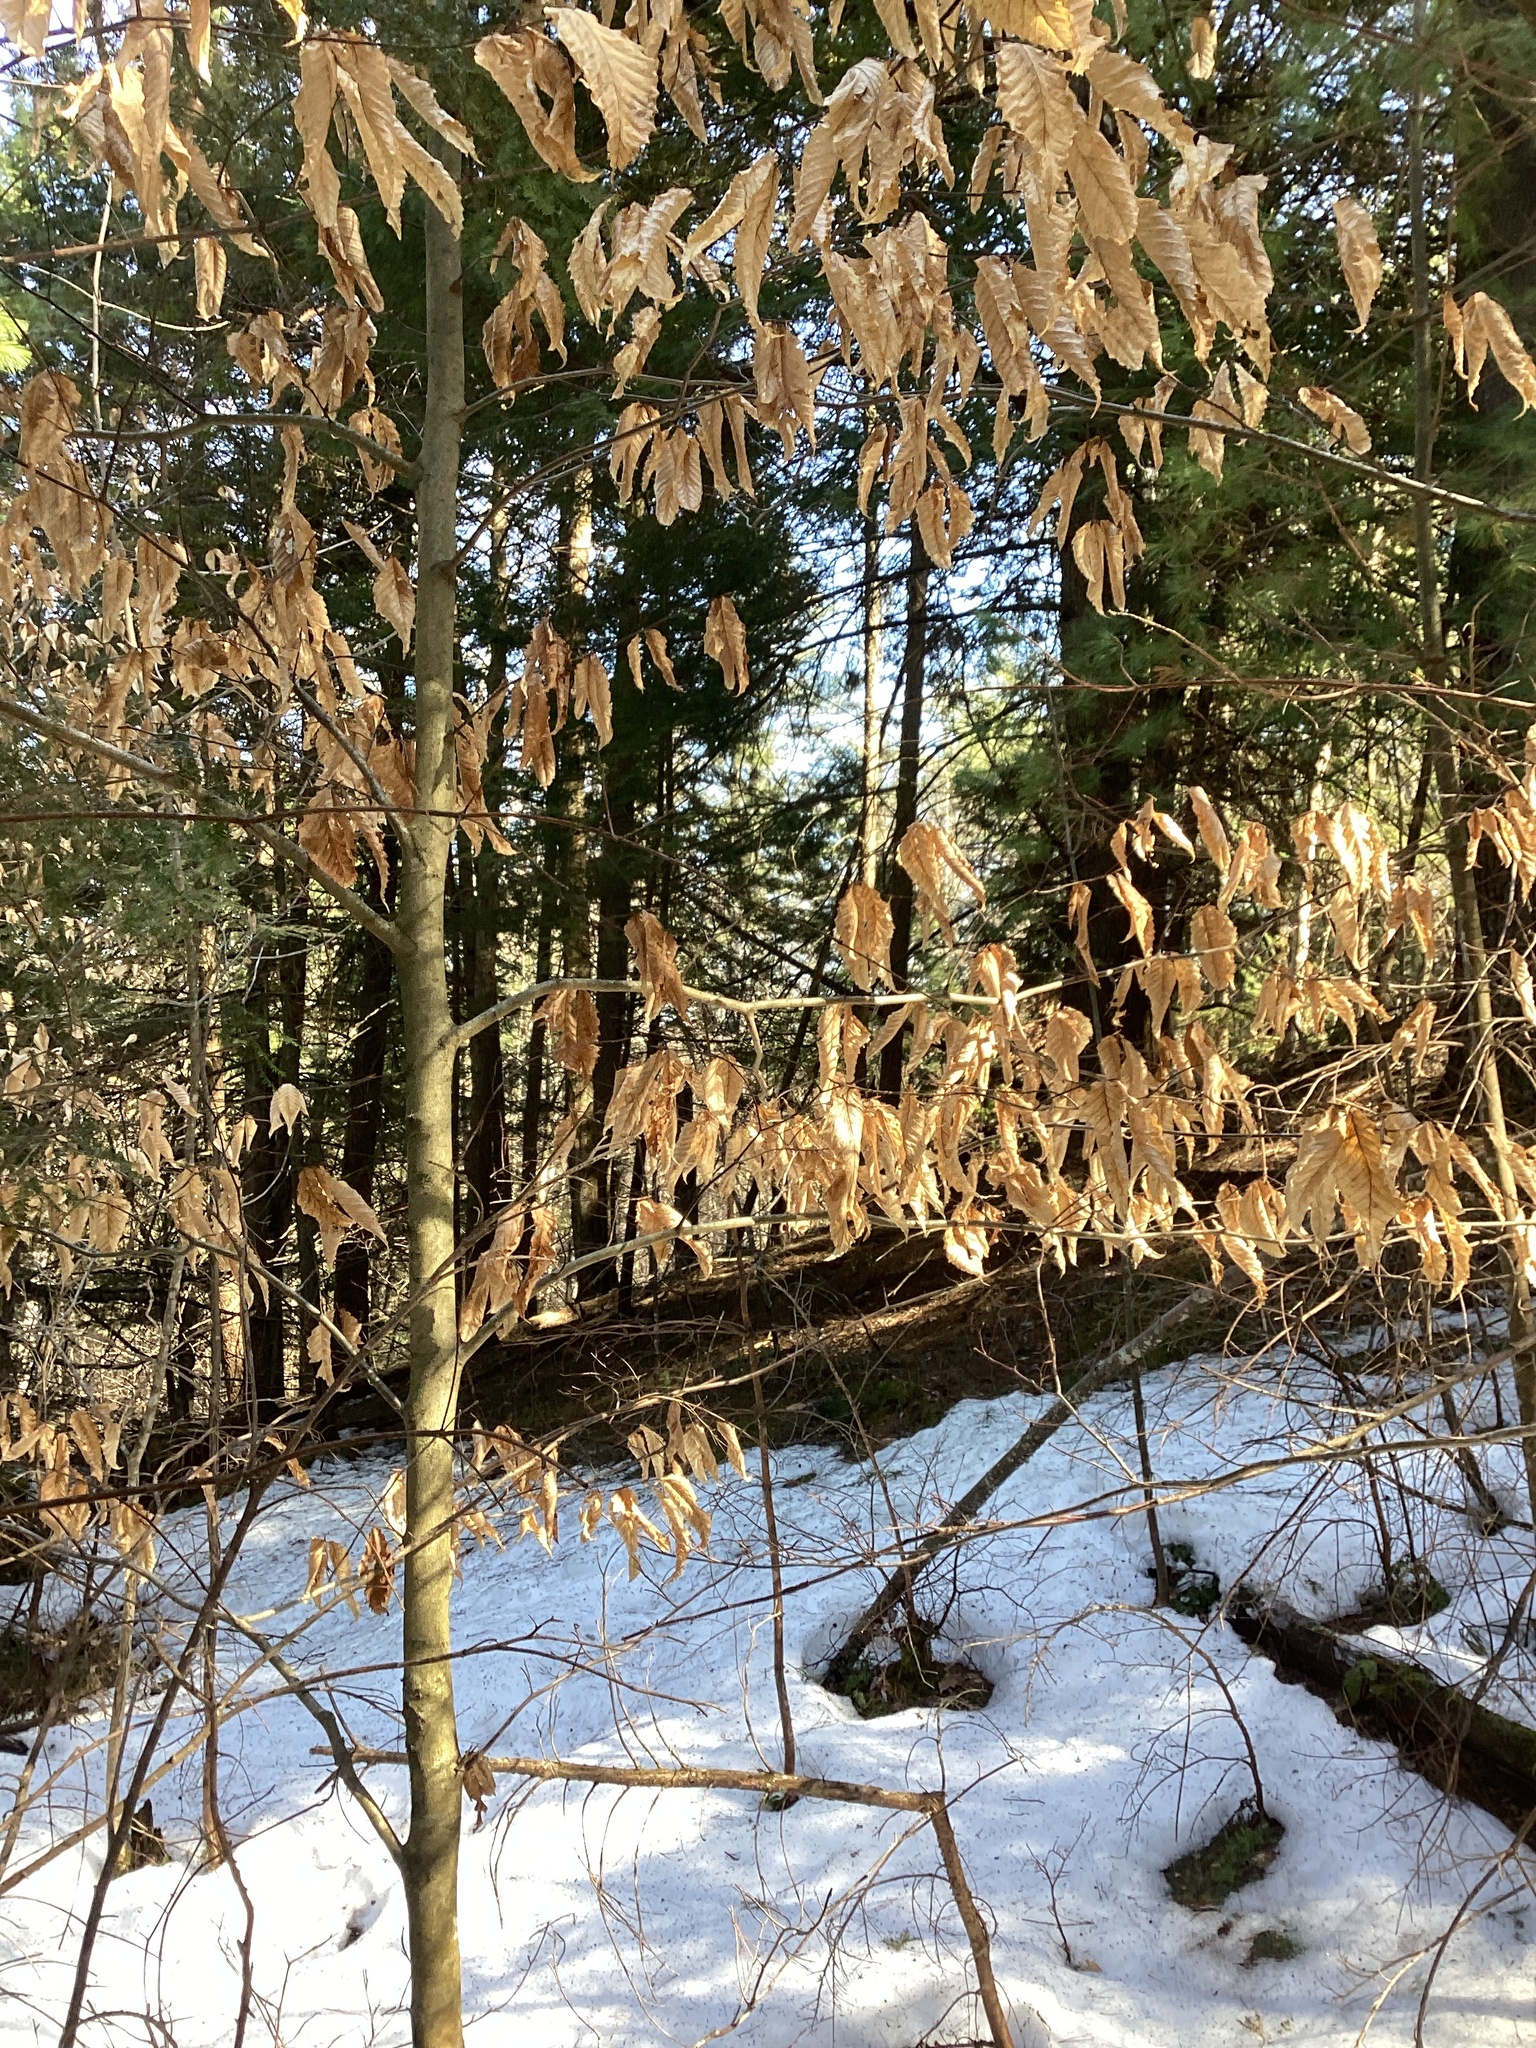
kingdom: Plantae
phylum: Tracheophyta
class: Magnoliopsida
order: Fagales
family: Fagaceae
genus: Fagus
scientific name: Fagus grandifolia
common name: American beech
